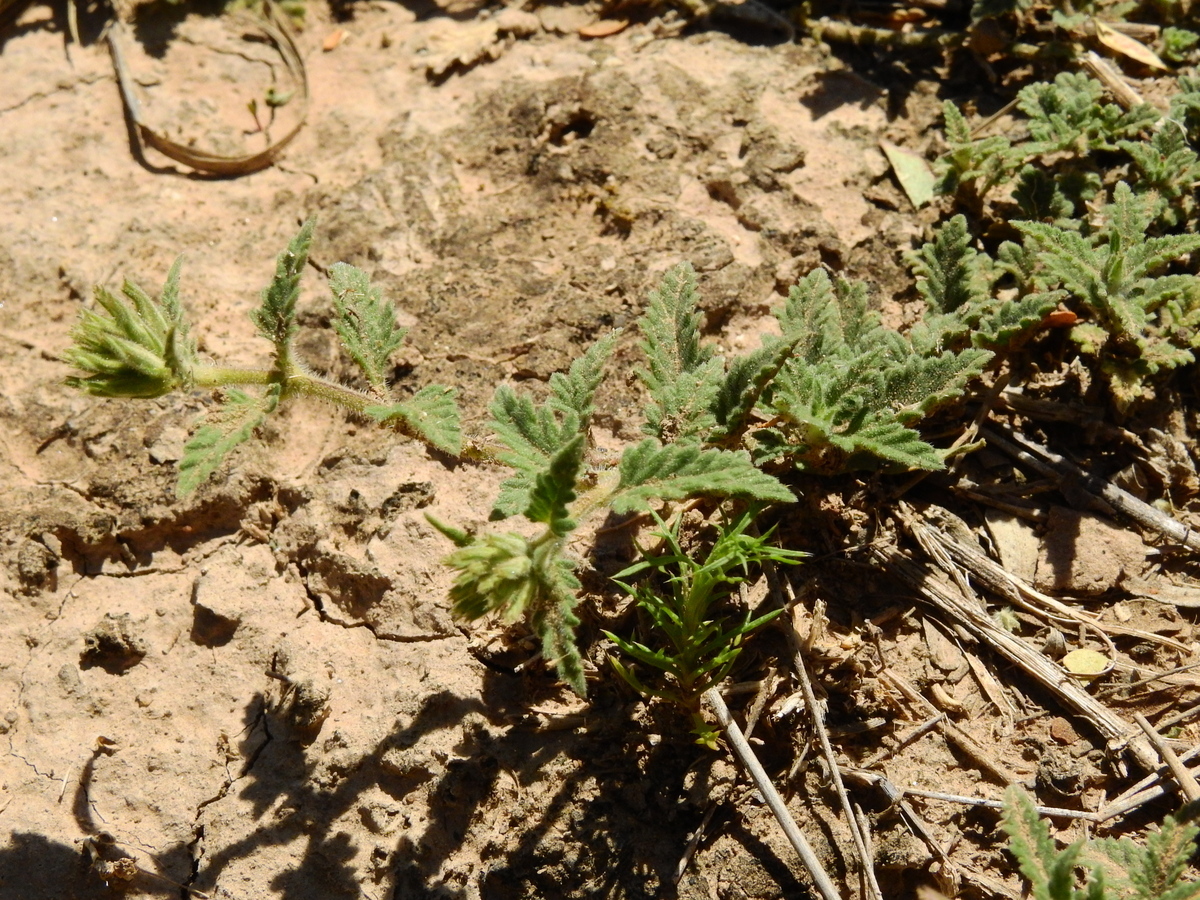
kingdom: Plantae
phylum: Tracheophyta
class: Magnoliopsida
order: Lamiales
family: Verbenaceae
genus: Verbena
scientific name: Verbena tweedieana
